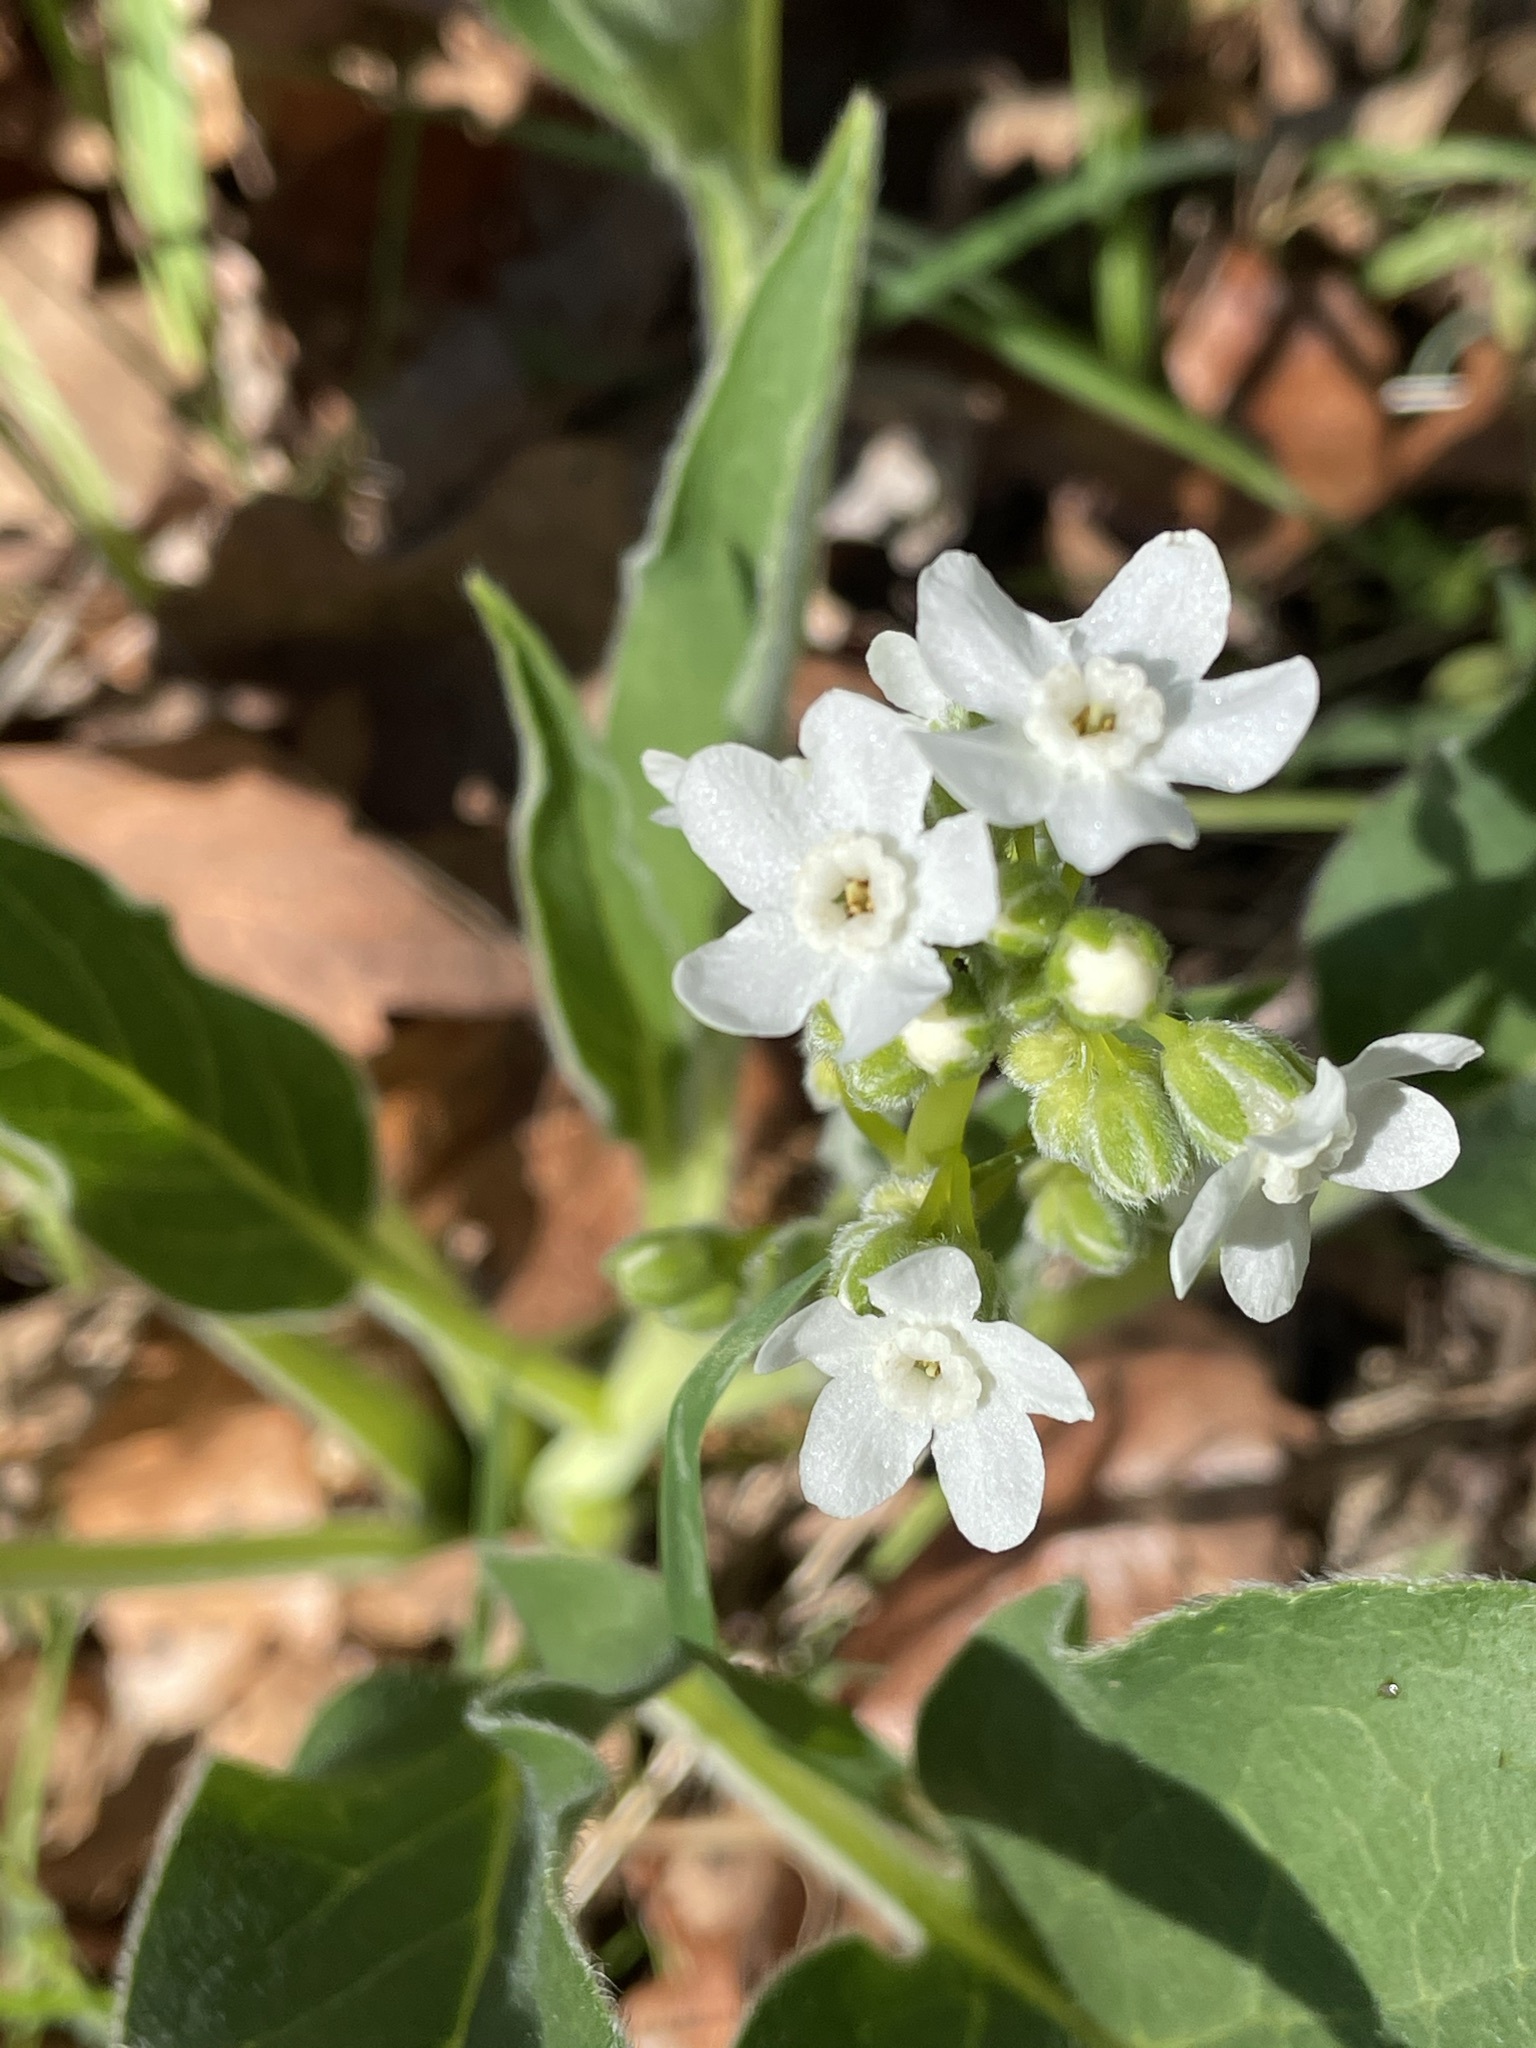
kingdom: Plantae
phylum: Tracheophyta
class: Magnoliopsida
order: Boraginales
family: Boraginaceae
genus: Adelinia
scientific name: Adelinia grande
